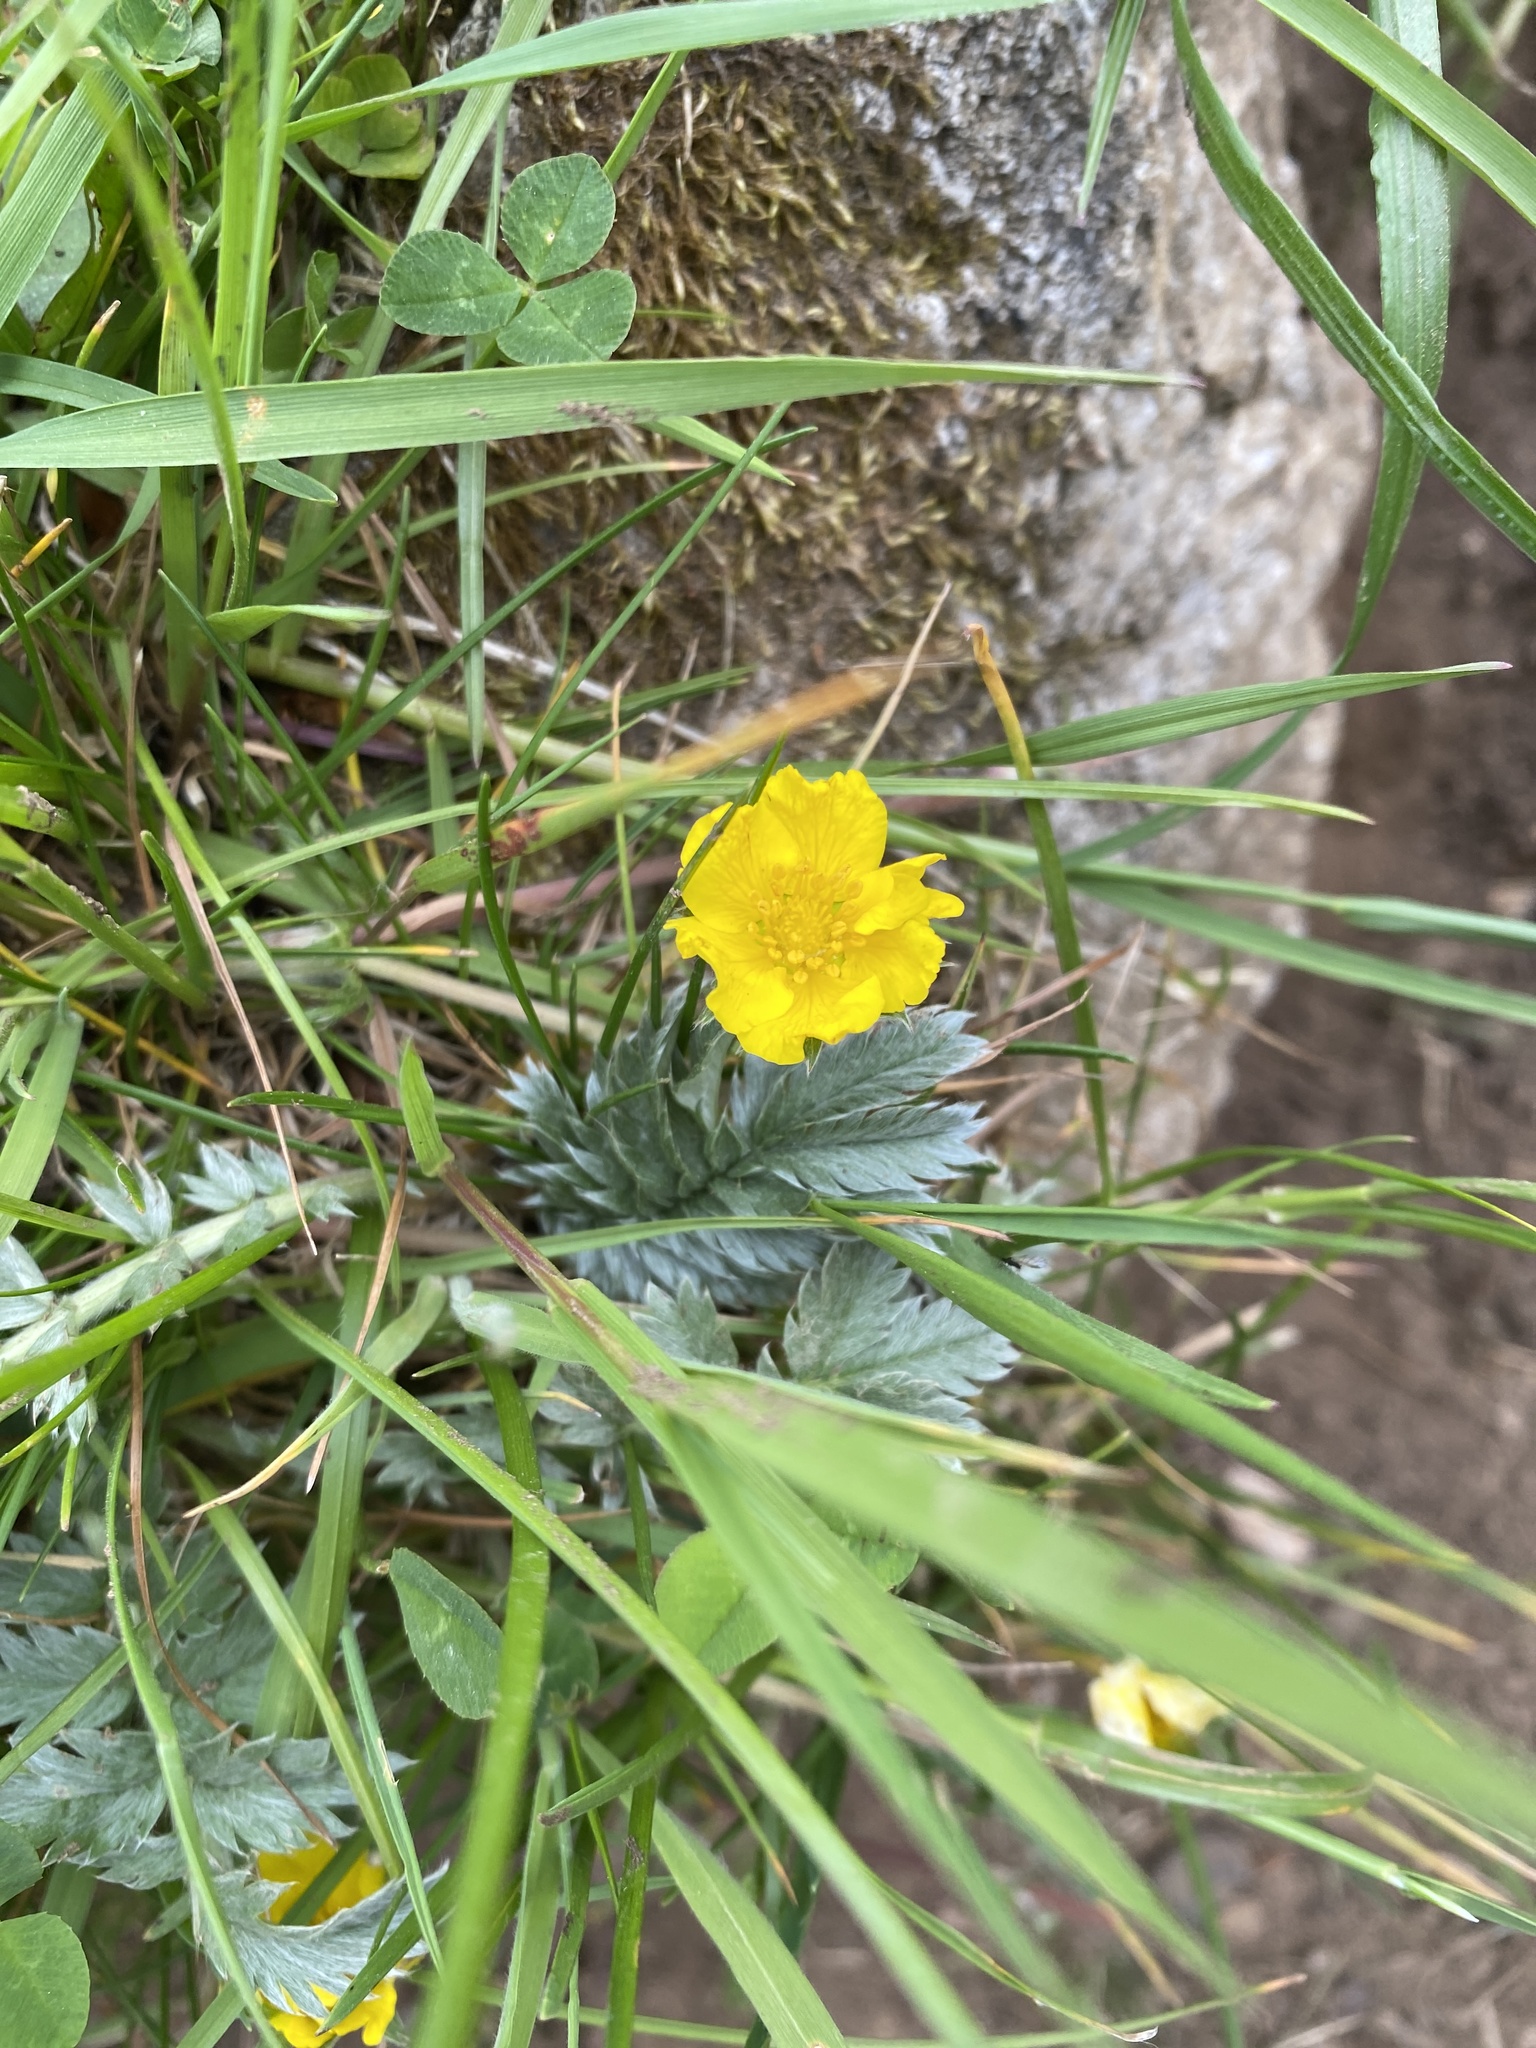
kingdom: Plantae
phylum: Tracheophyta
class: Magnoliopsida
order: Rosales
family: Rosaceae
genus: Argentina
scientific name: Argentina anserina
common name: Common silverweed
